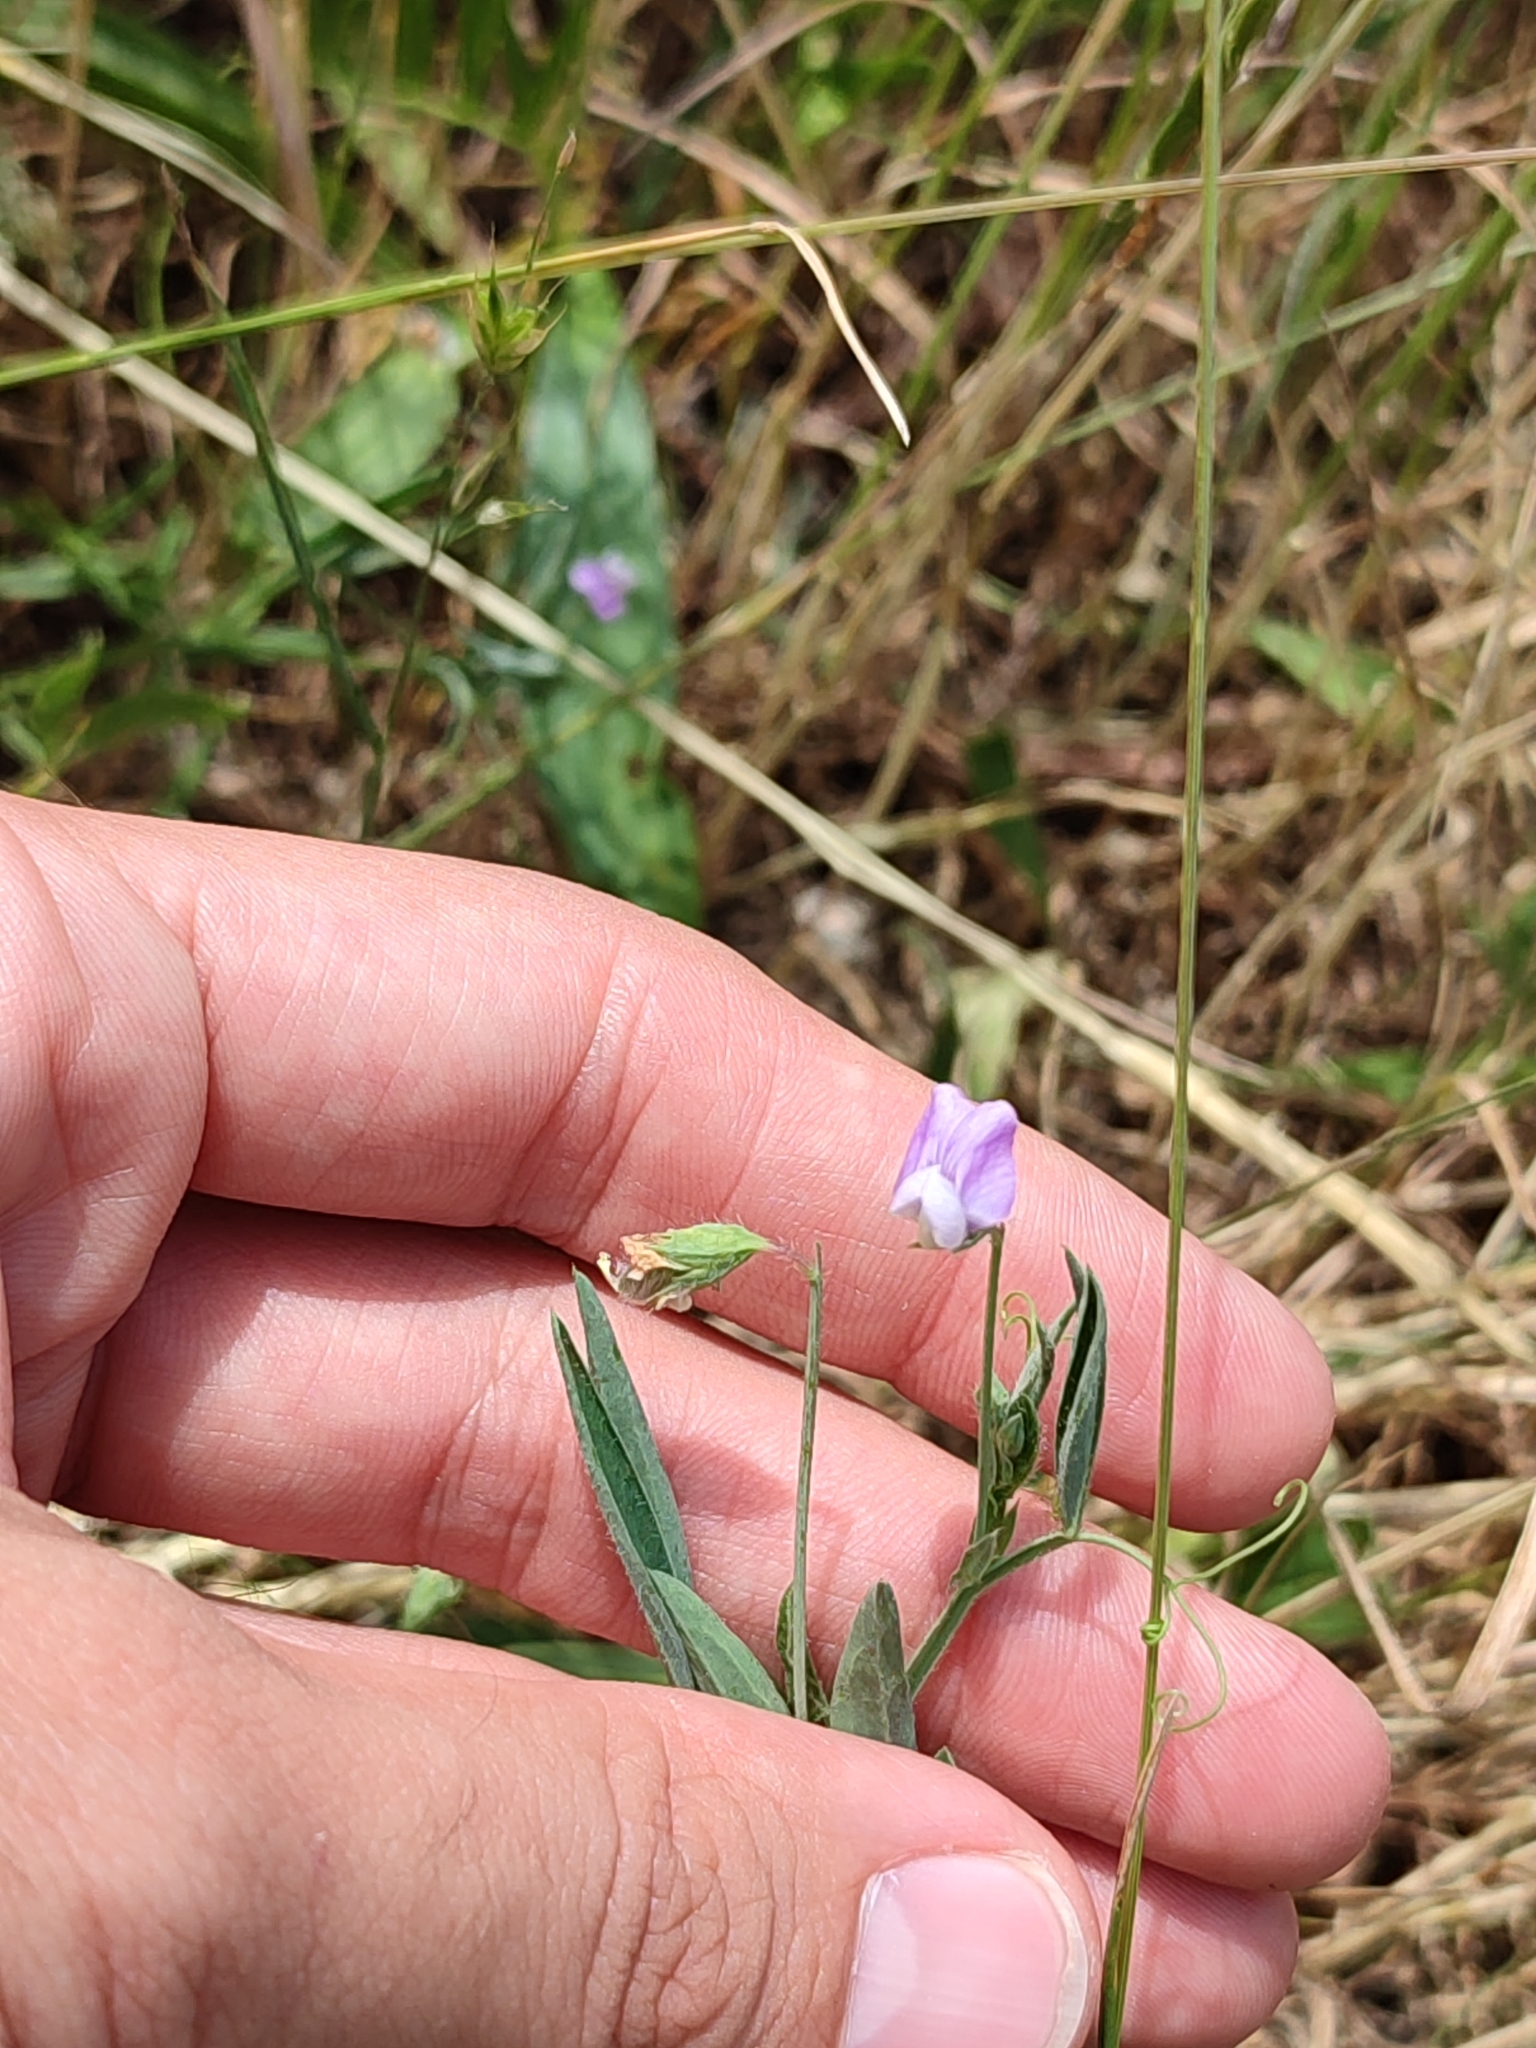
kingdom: Plantae
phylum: Tracheophyta
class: Magnoliopsida
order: Fabales
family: Fabaceae
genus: Lathyrus
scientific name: Lathyrus hirsutus
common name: Hairy vetchling
